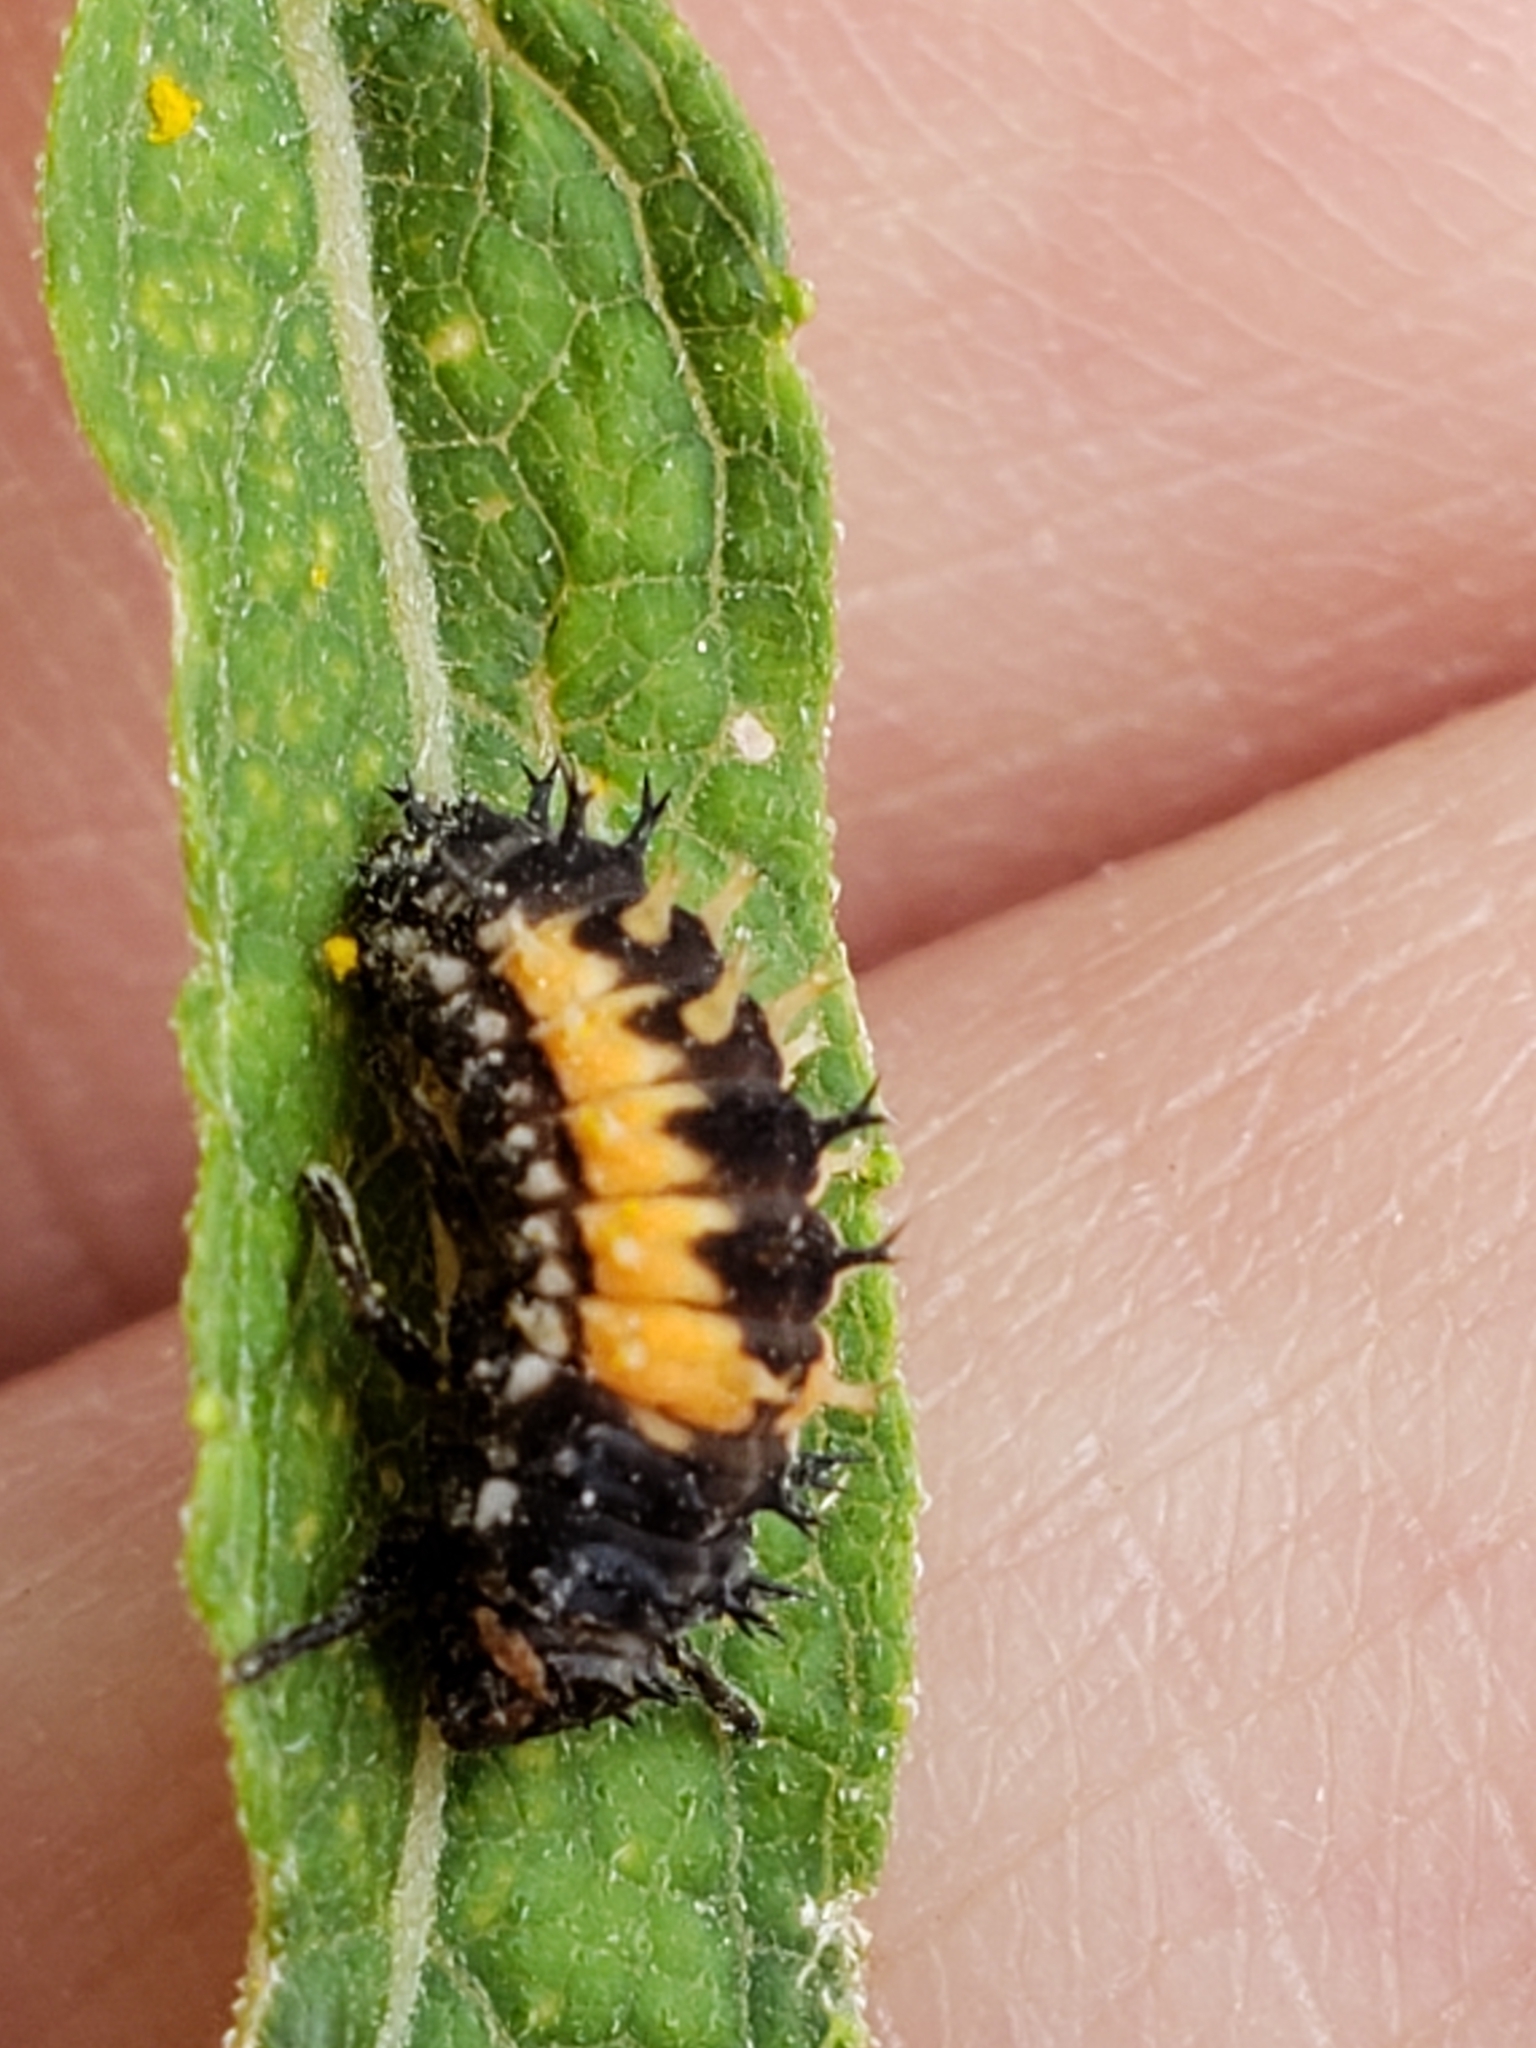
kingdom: Animalia
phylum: Arthropoda
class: Insecta
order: Coleoptera
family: Coccinellidae
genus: Harmonia
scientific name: Harmonia axyridis
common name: Harlequin ladybird
